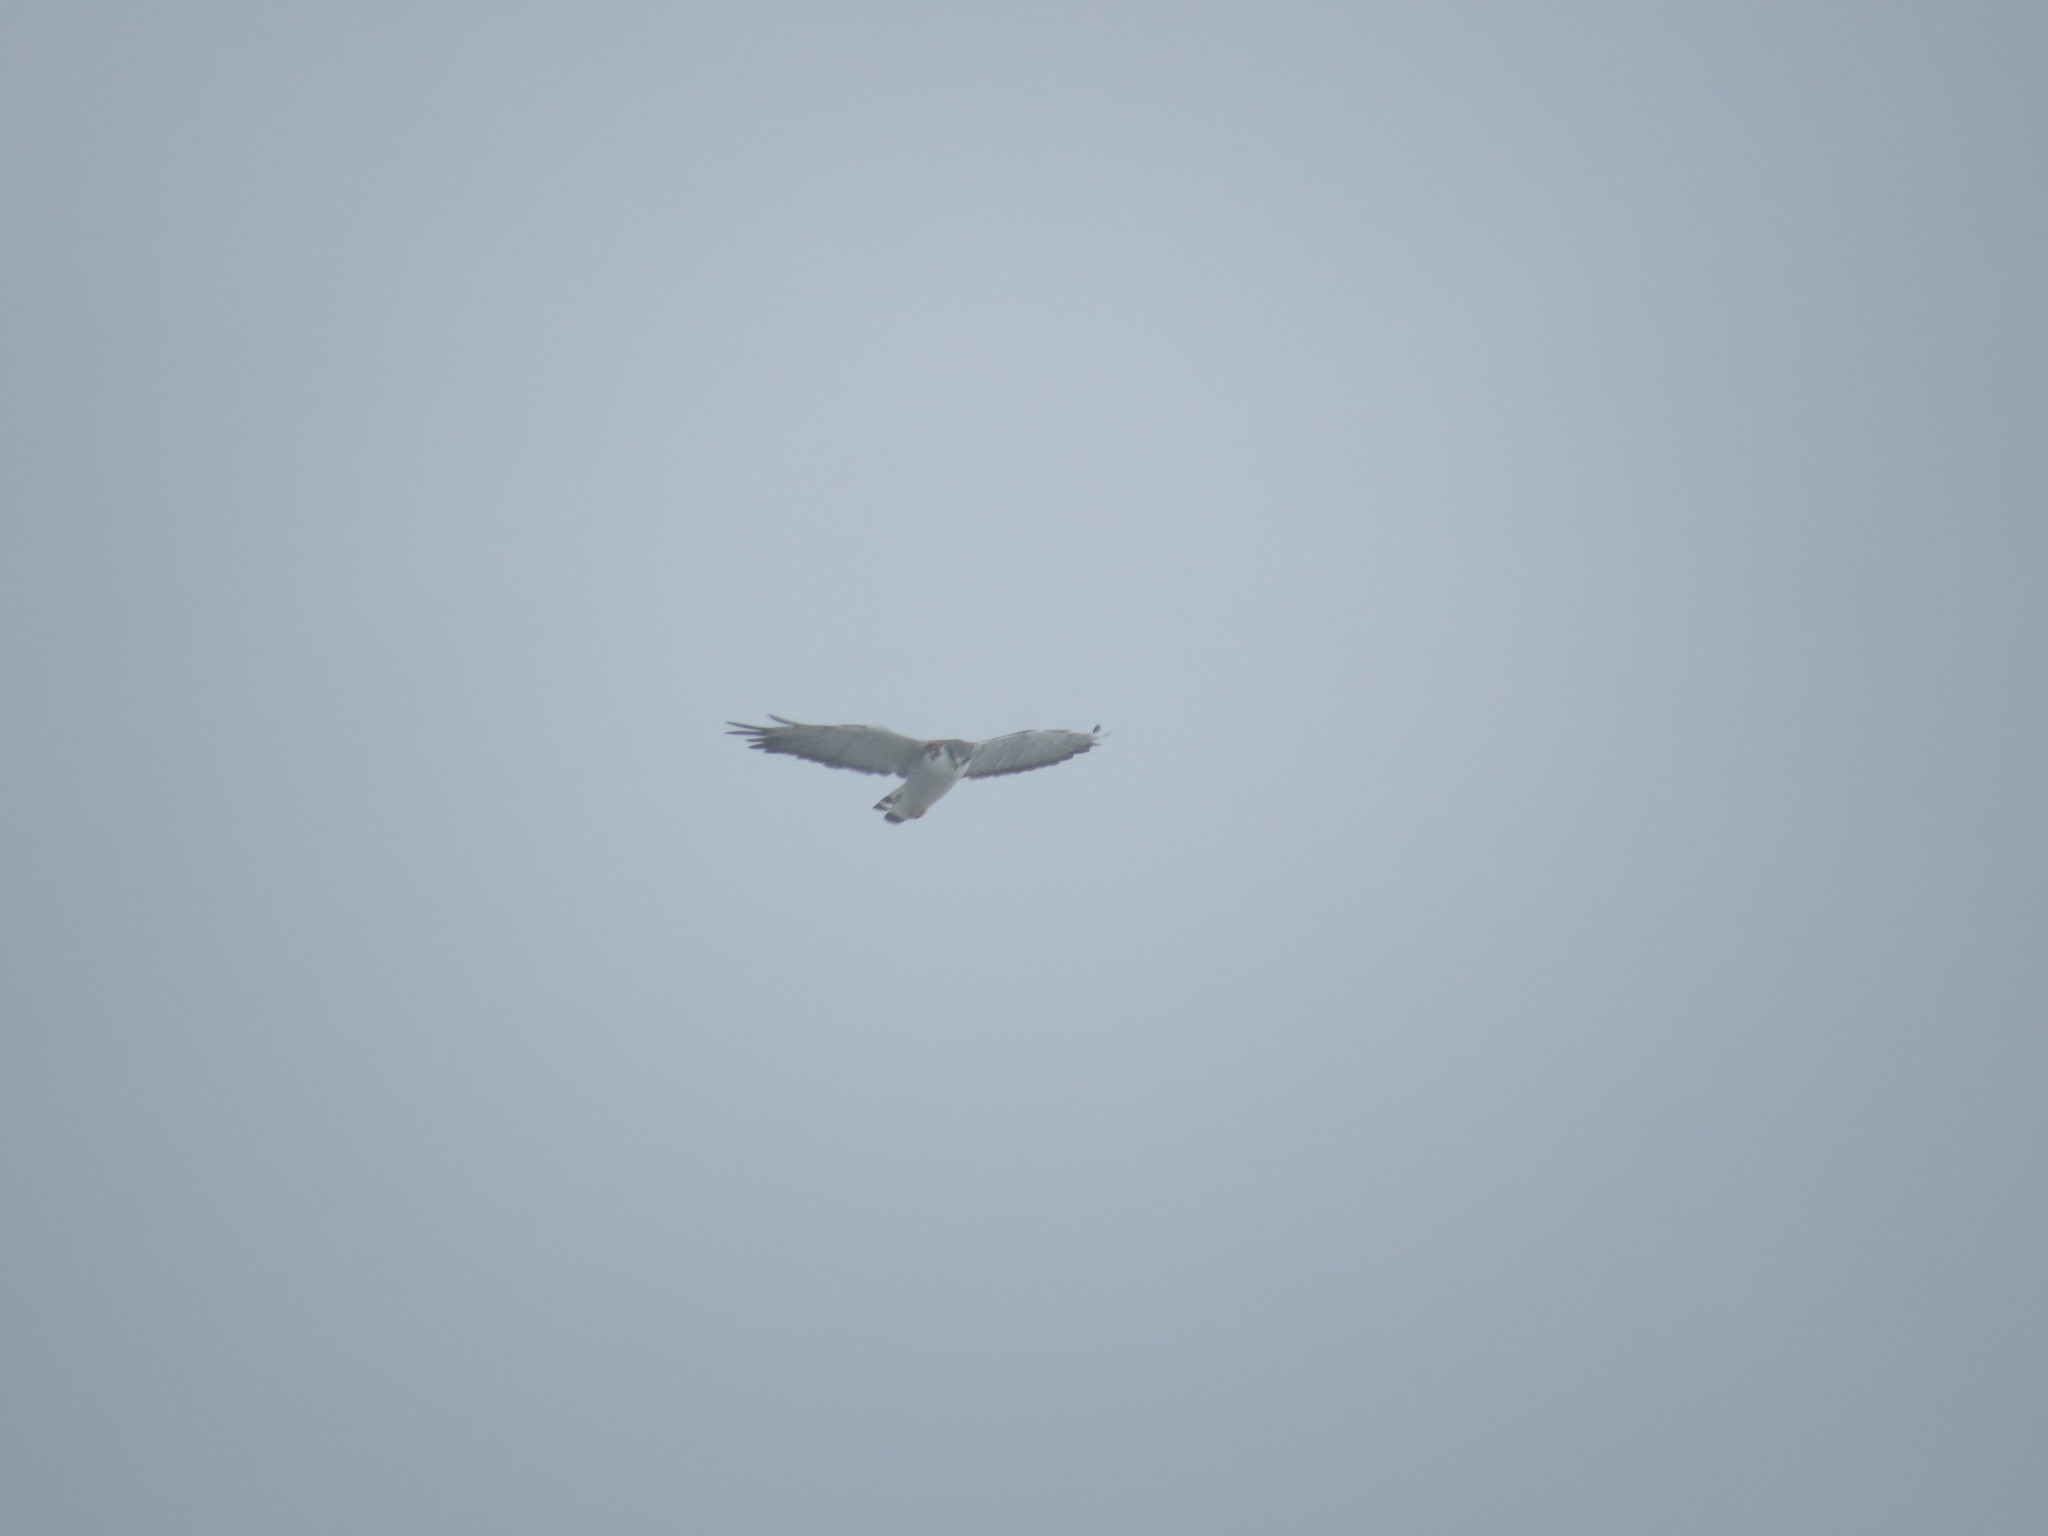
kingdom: Animalia
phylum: Chordata
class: Aves
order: Accipitriformes
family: Accipitridae
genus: Buteo
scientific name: Buteo polyosoma
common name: Variable hawk
